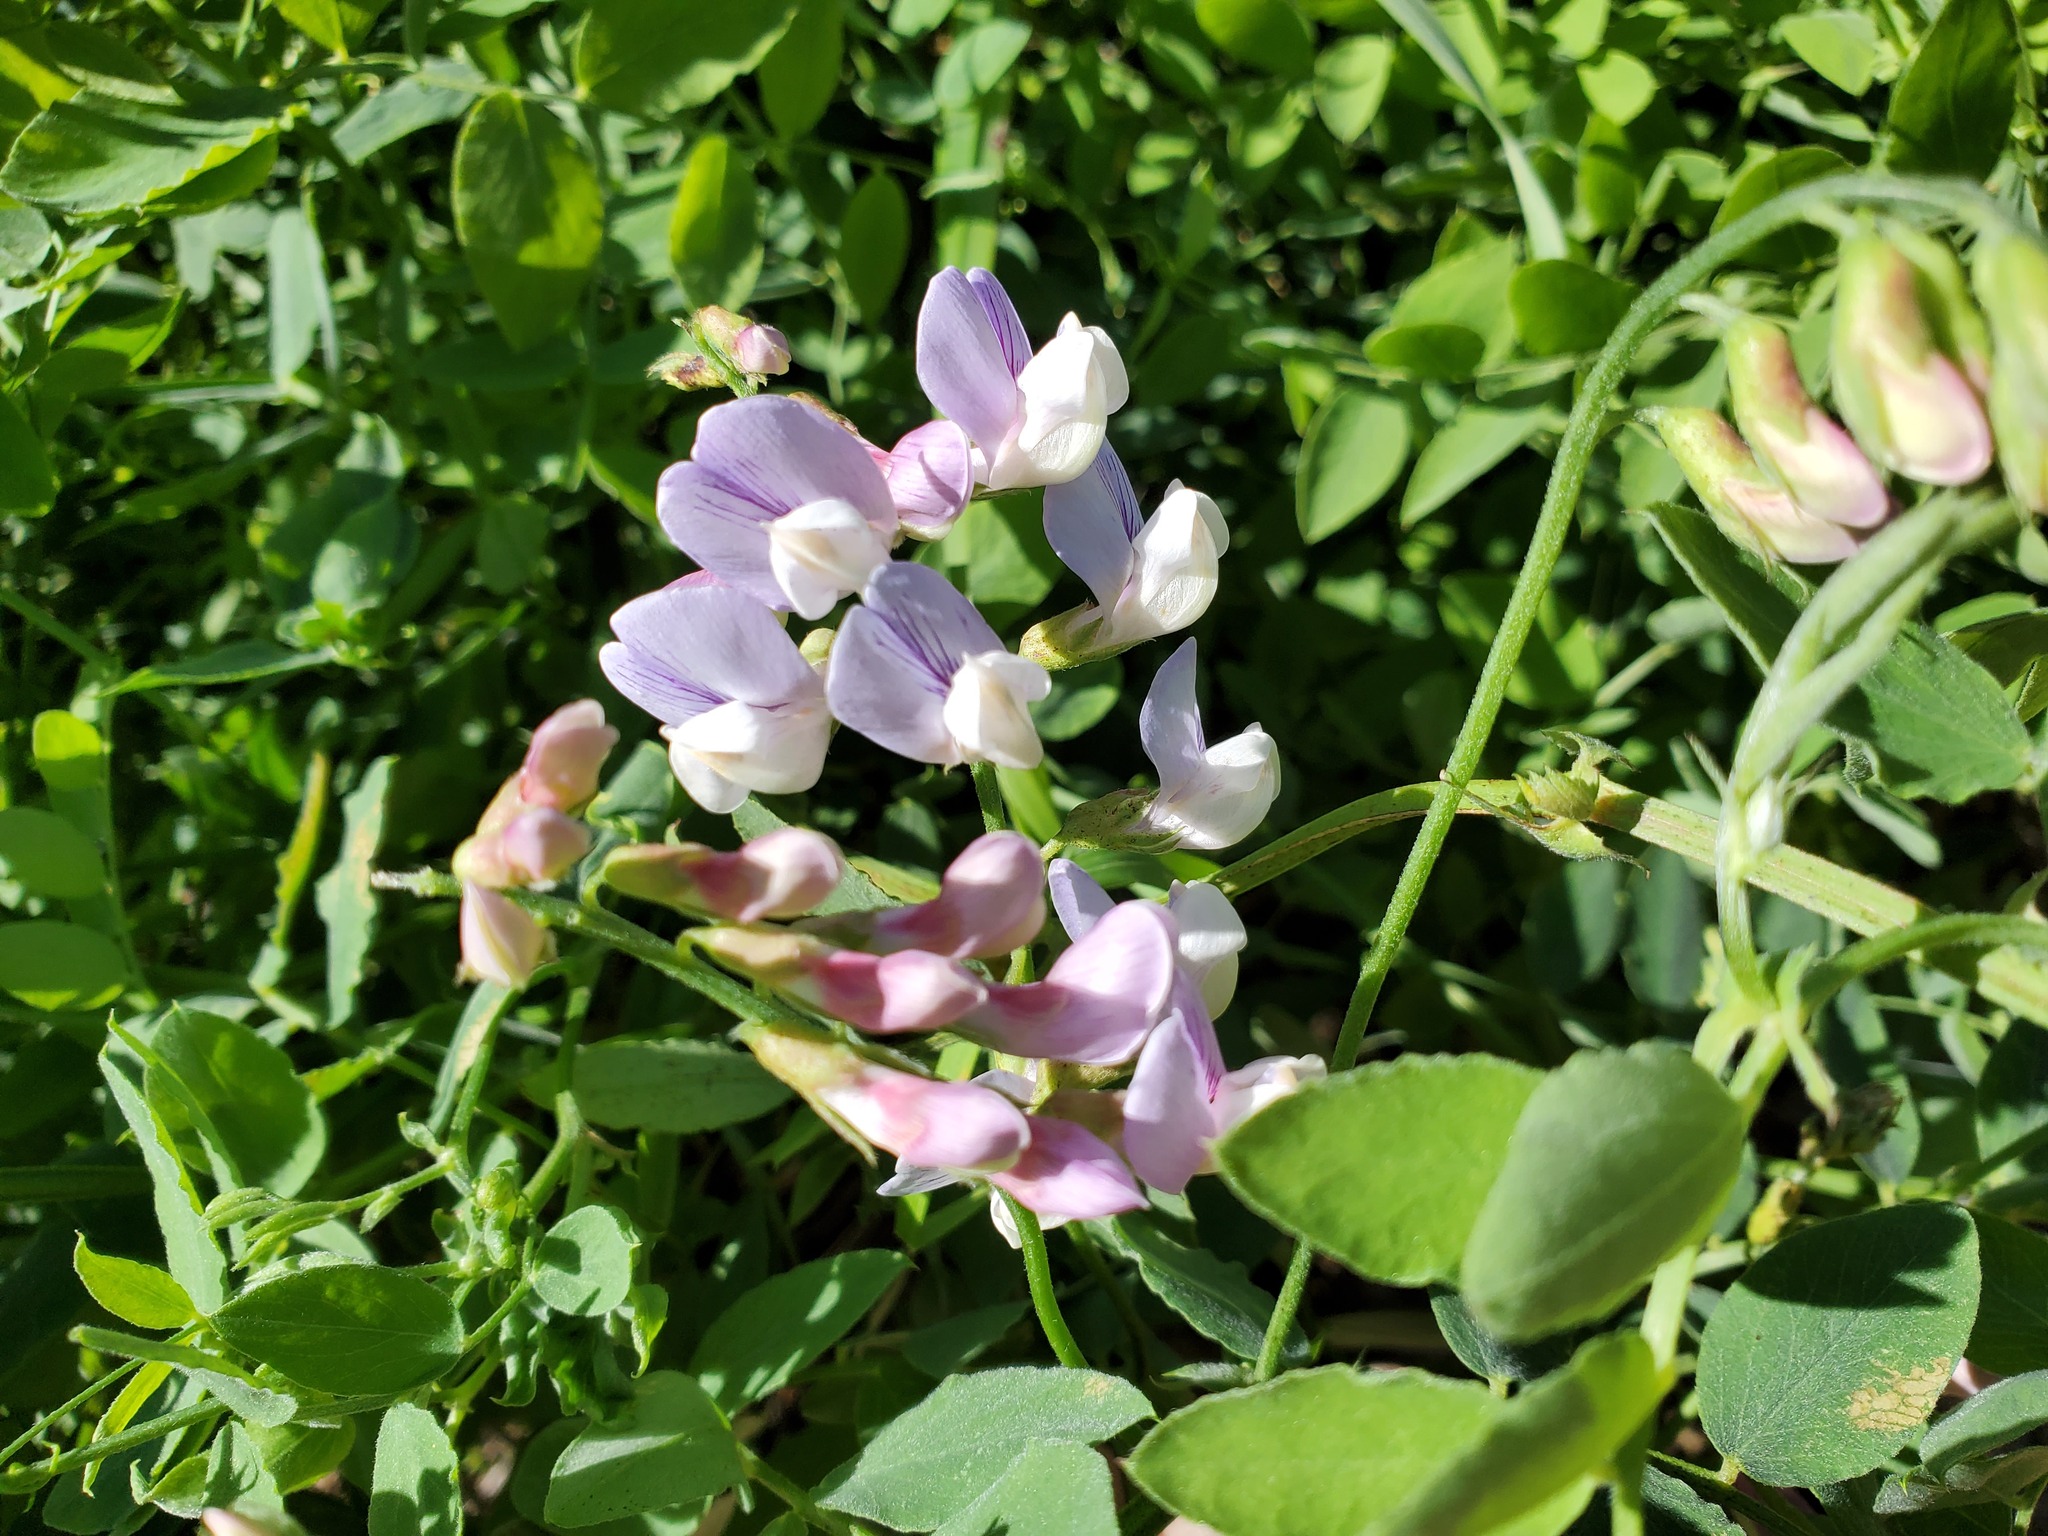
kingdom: Plantae
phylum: Tracheophyta
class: Magnoliopsida
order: Fabales
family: Fabaceae
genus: Lathyrus
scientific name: Lathyrus vestitus
